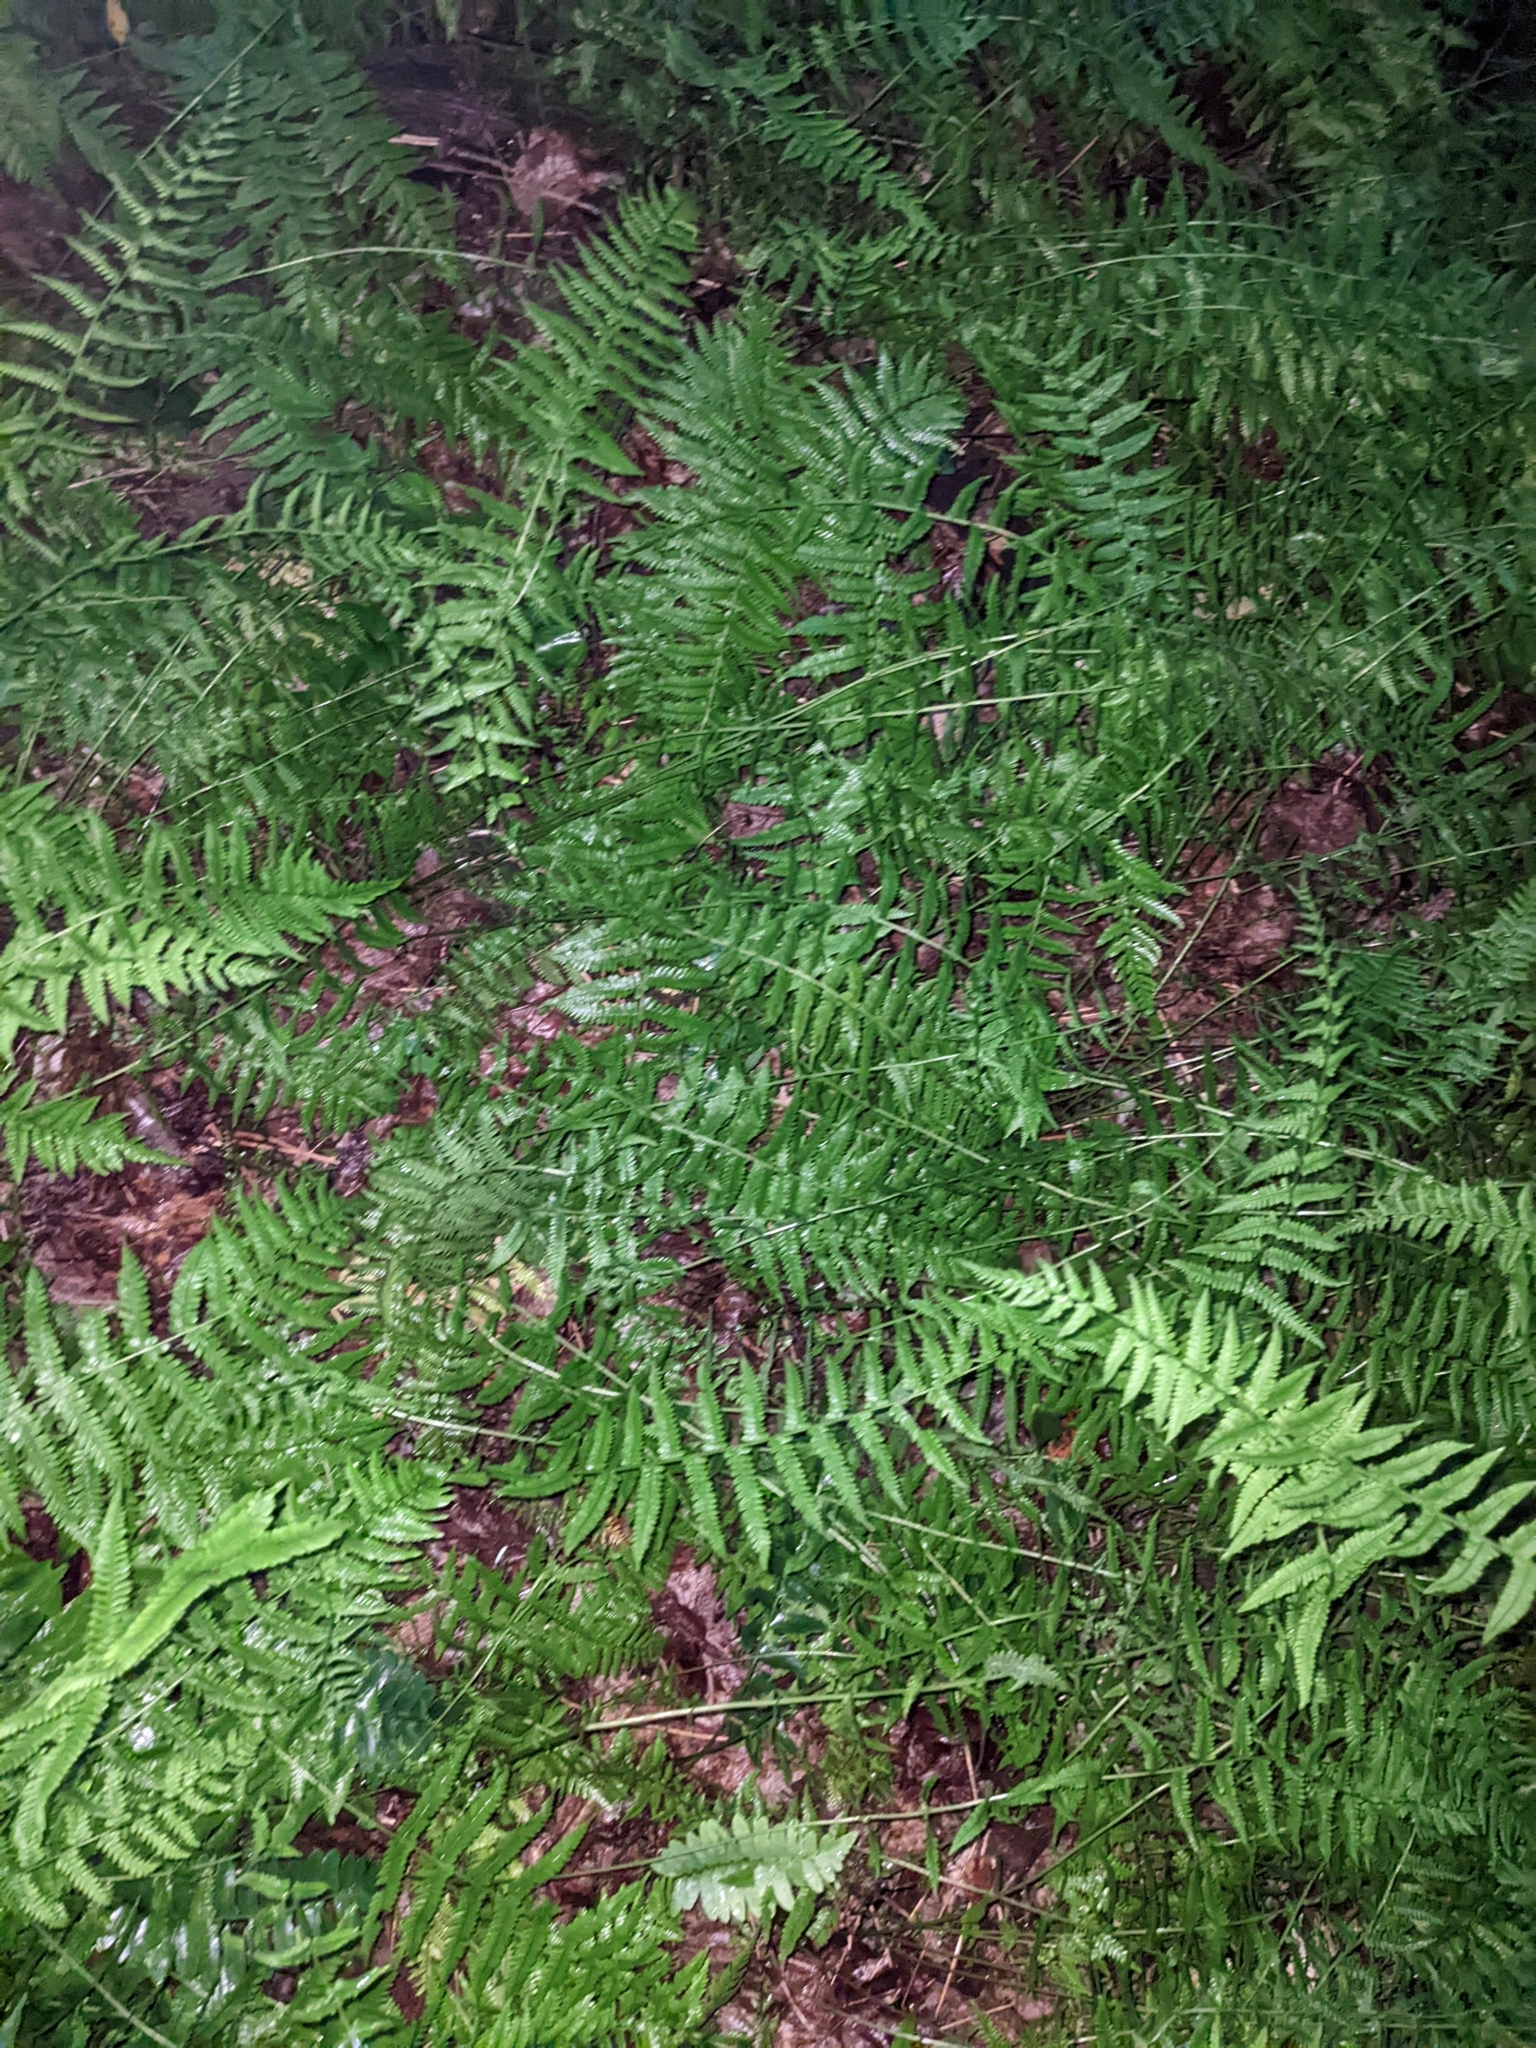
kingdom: Plantae
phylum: Tracheophyta
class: Polypodiopsida
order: Polypodiales
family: Thelypteridaceae
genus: Amauropelta
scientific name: Amauropelta noveboracensis
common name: New york fern
